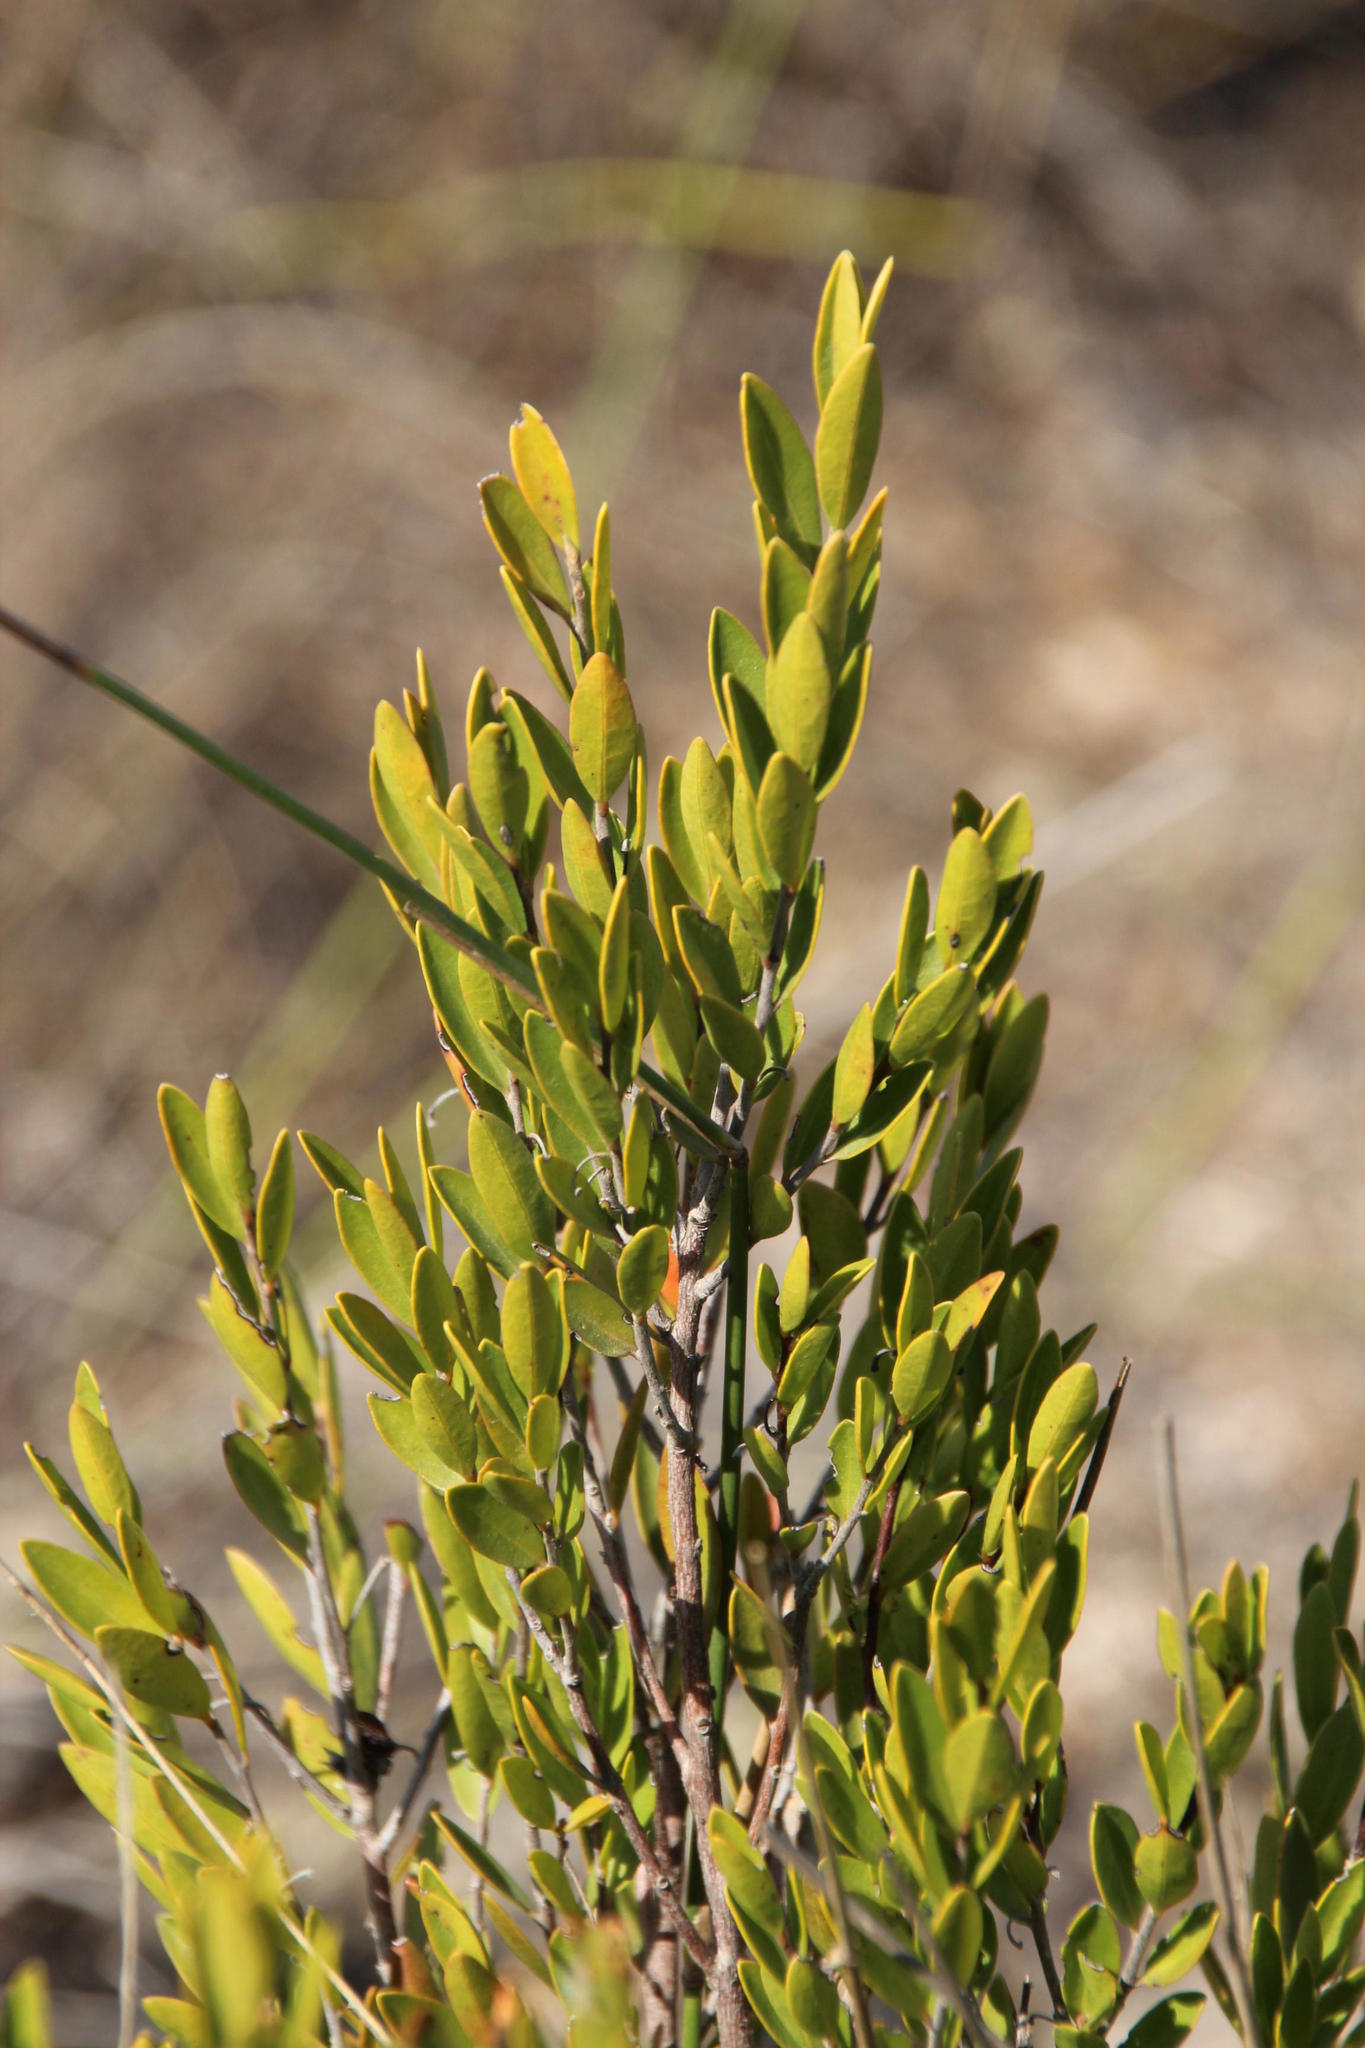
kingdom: Plantae
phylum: Tracheophyta
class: Magnoliopsida
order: Ericales
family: Ebenaceae
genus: Diospyros
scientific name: Diospyros glabra
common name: Fynbos star apple
